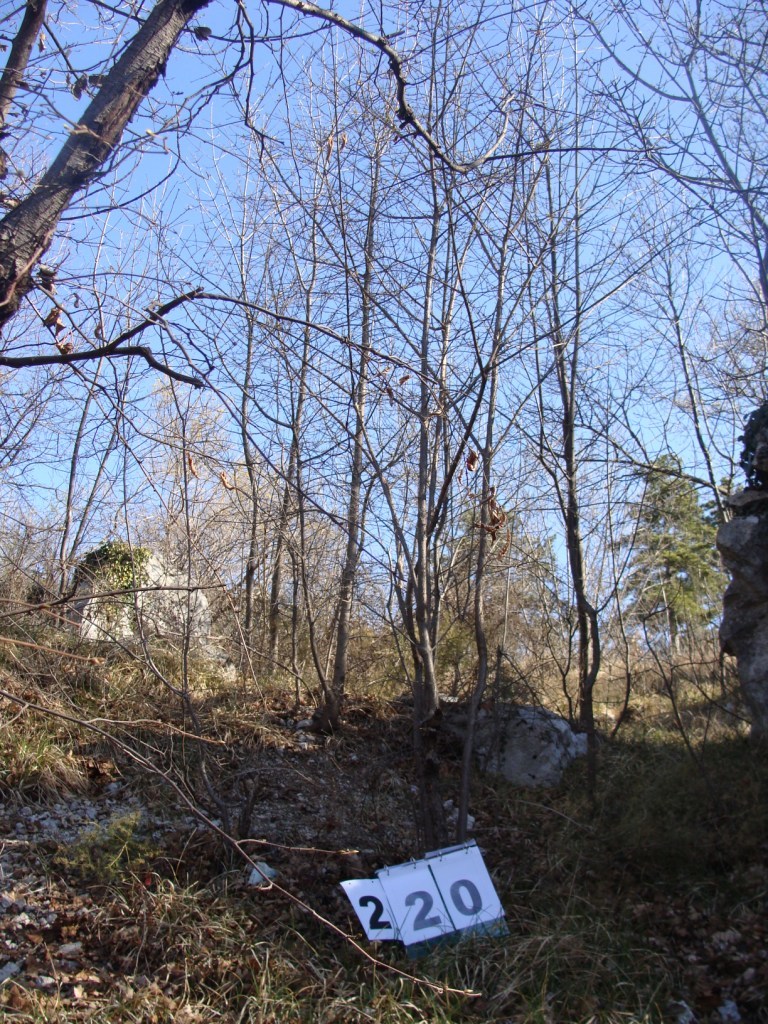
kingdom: Plantae
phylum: Tracheophyta
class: Magnoliopsida
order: Cornales
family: Cornaceae
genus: Cornus
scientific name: Cornus mas
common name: Cornelian-cherry
